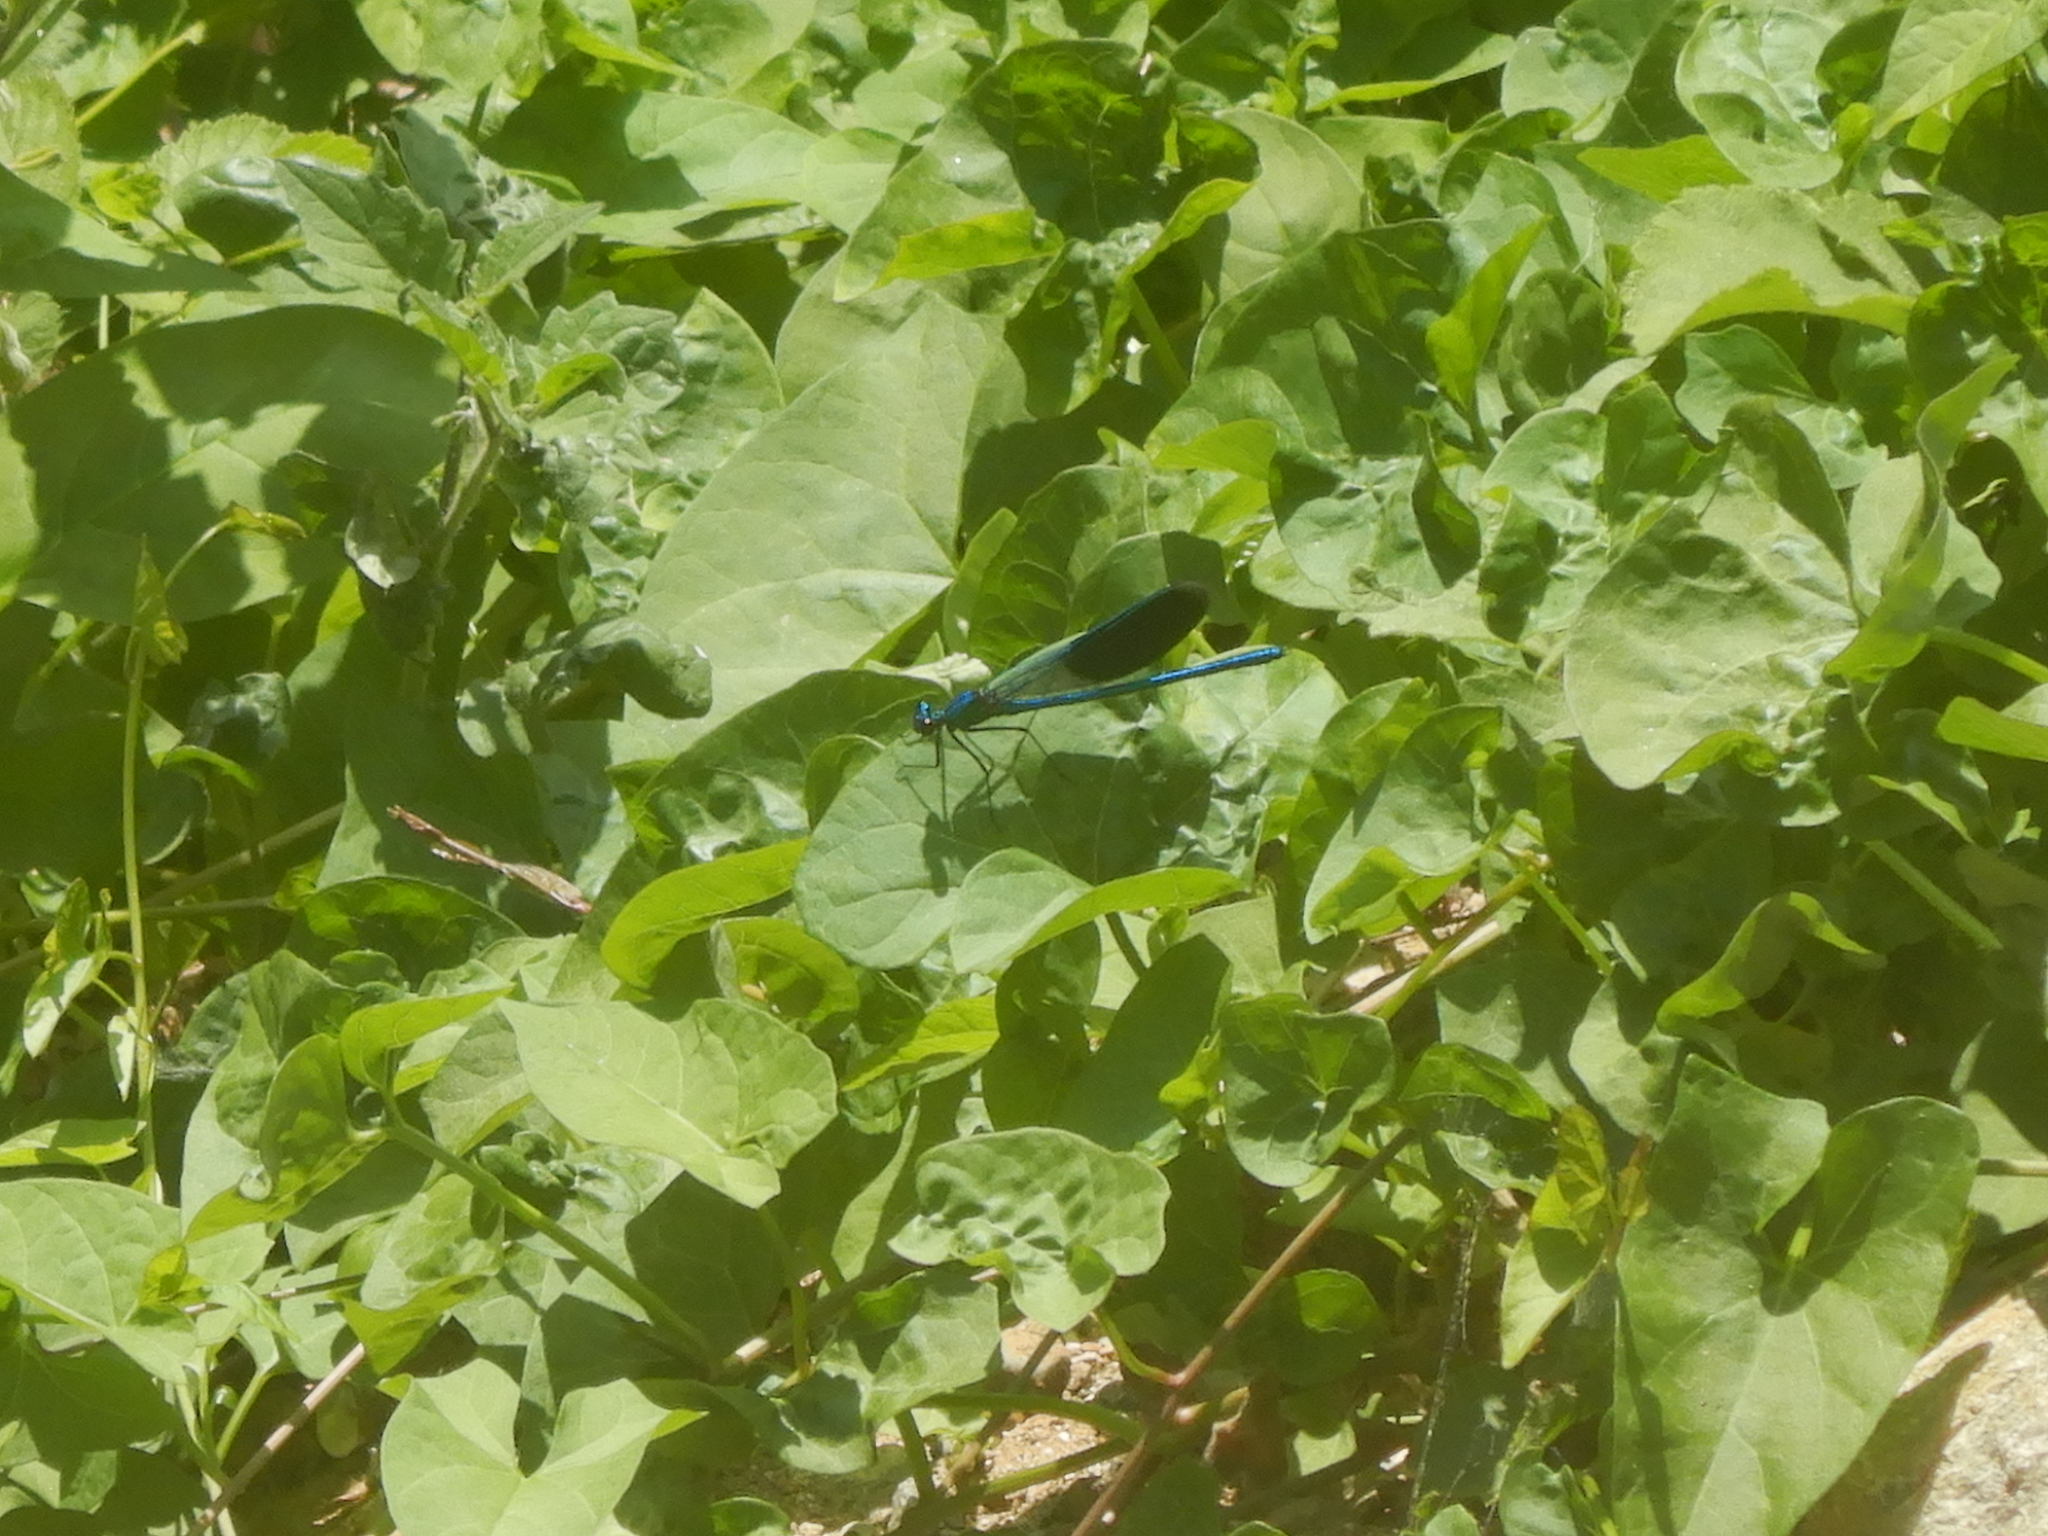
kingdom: Animalia
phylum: Arthropoda
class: Insecta
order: Odonata
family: Calopterygidae
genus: Calopteryx
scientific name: Calopteryx splendens
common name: Banded demoiselle
